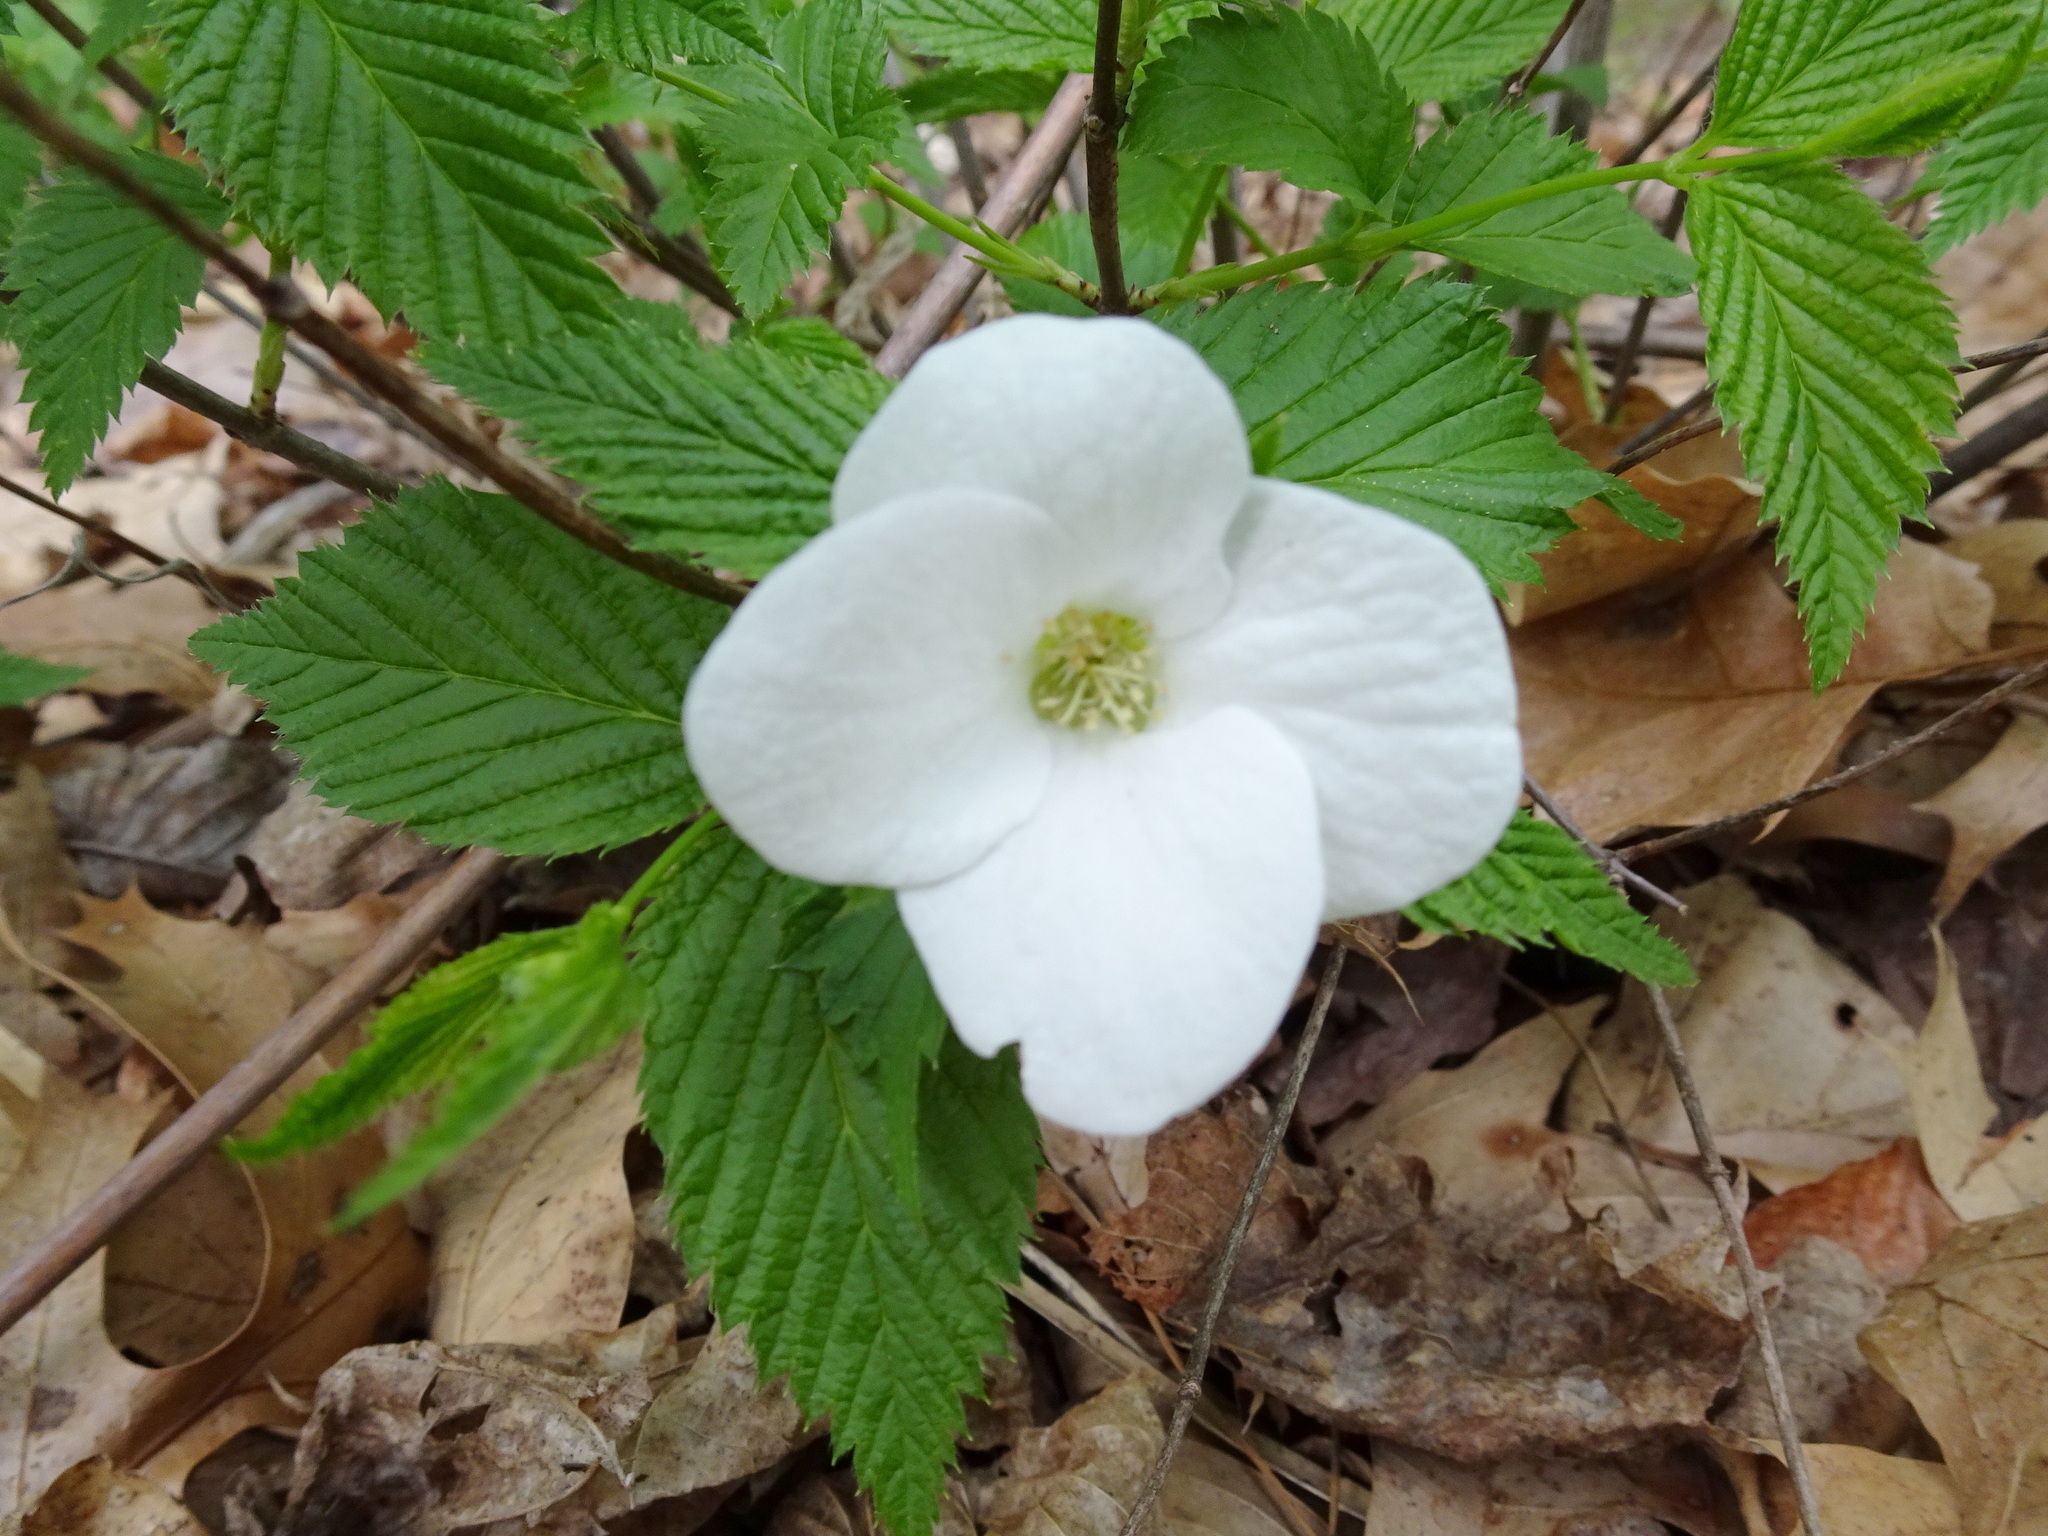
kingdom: Plantae
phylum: Tracheophyta
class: Magnoliopsida
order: Rosales
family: Rosaceae
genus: Rhodotypos
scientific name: Rhodotypos scandens
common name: Jetbead
